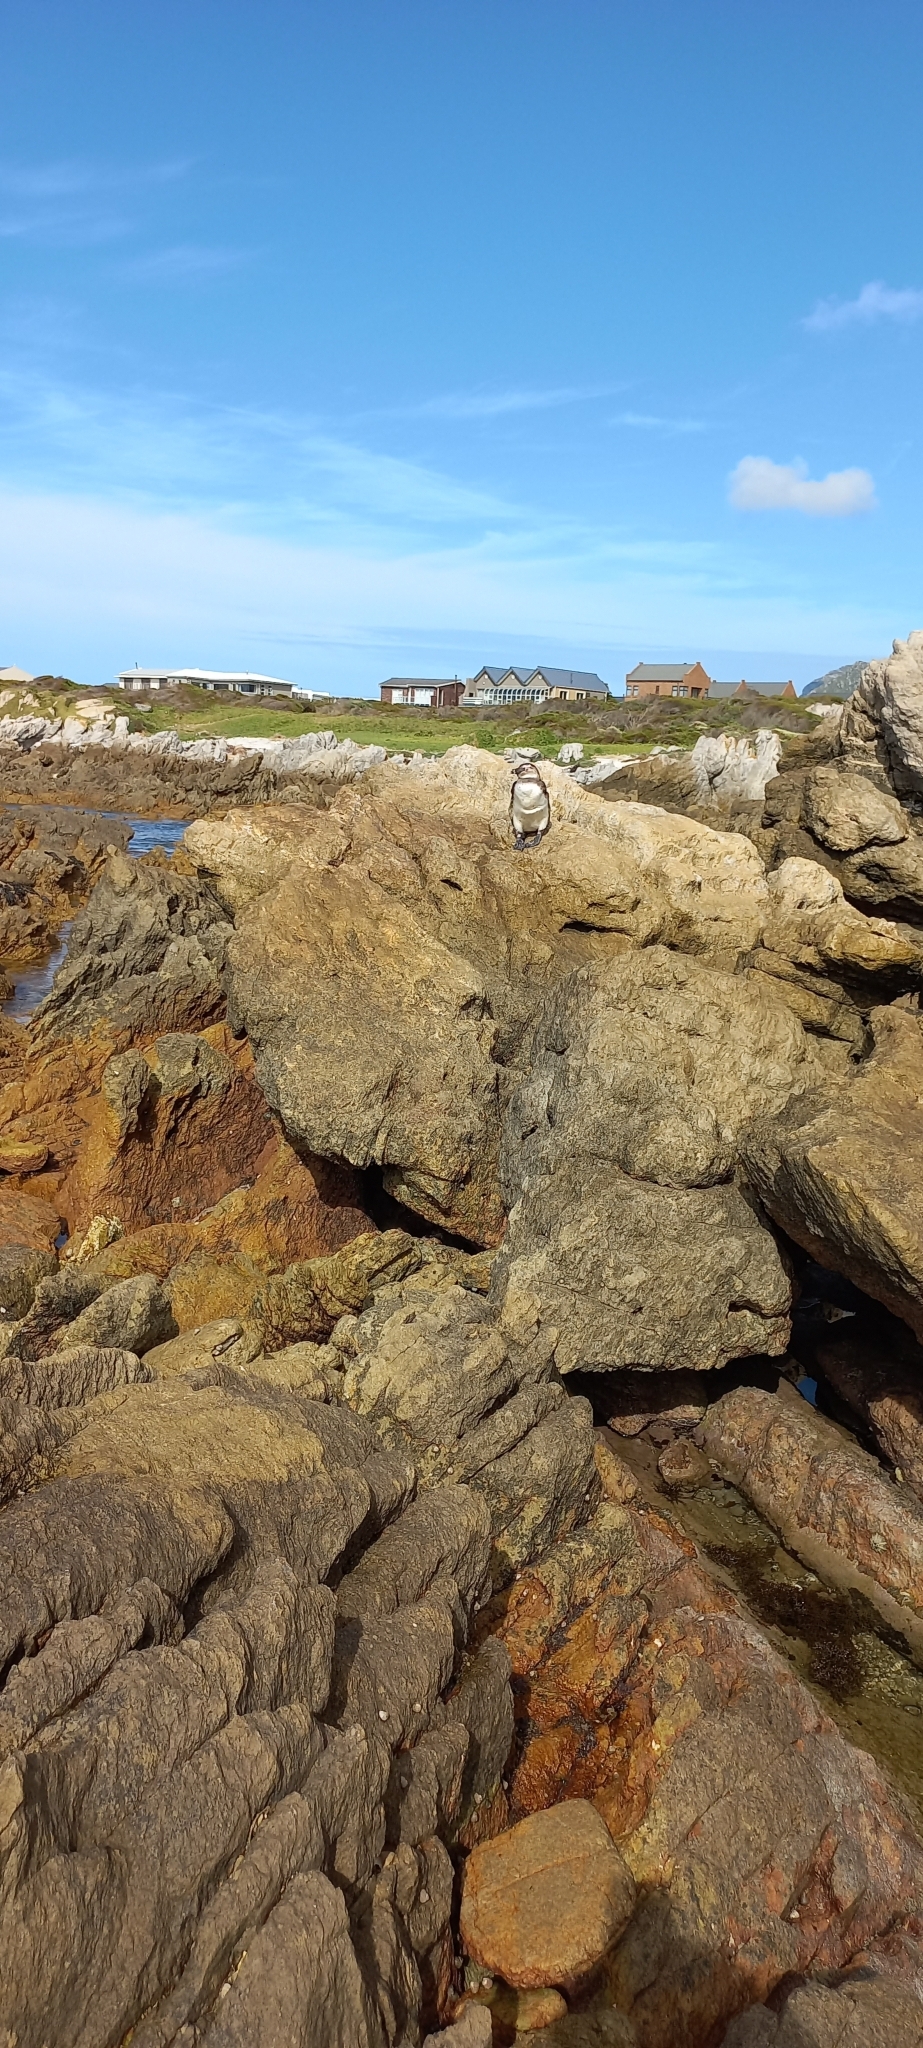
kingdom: Animalia
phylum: Chordata
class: Aves
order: Sphenisciformes
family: Spheniscidae
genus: Spheniscus
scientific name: Spheniscus demersus
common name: African penguin
